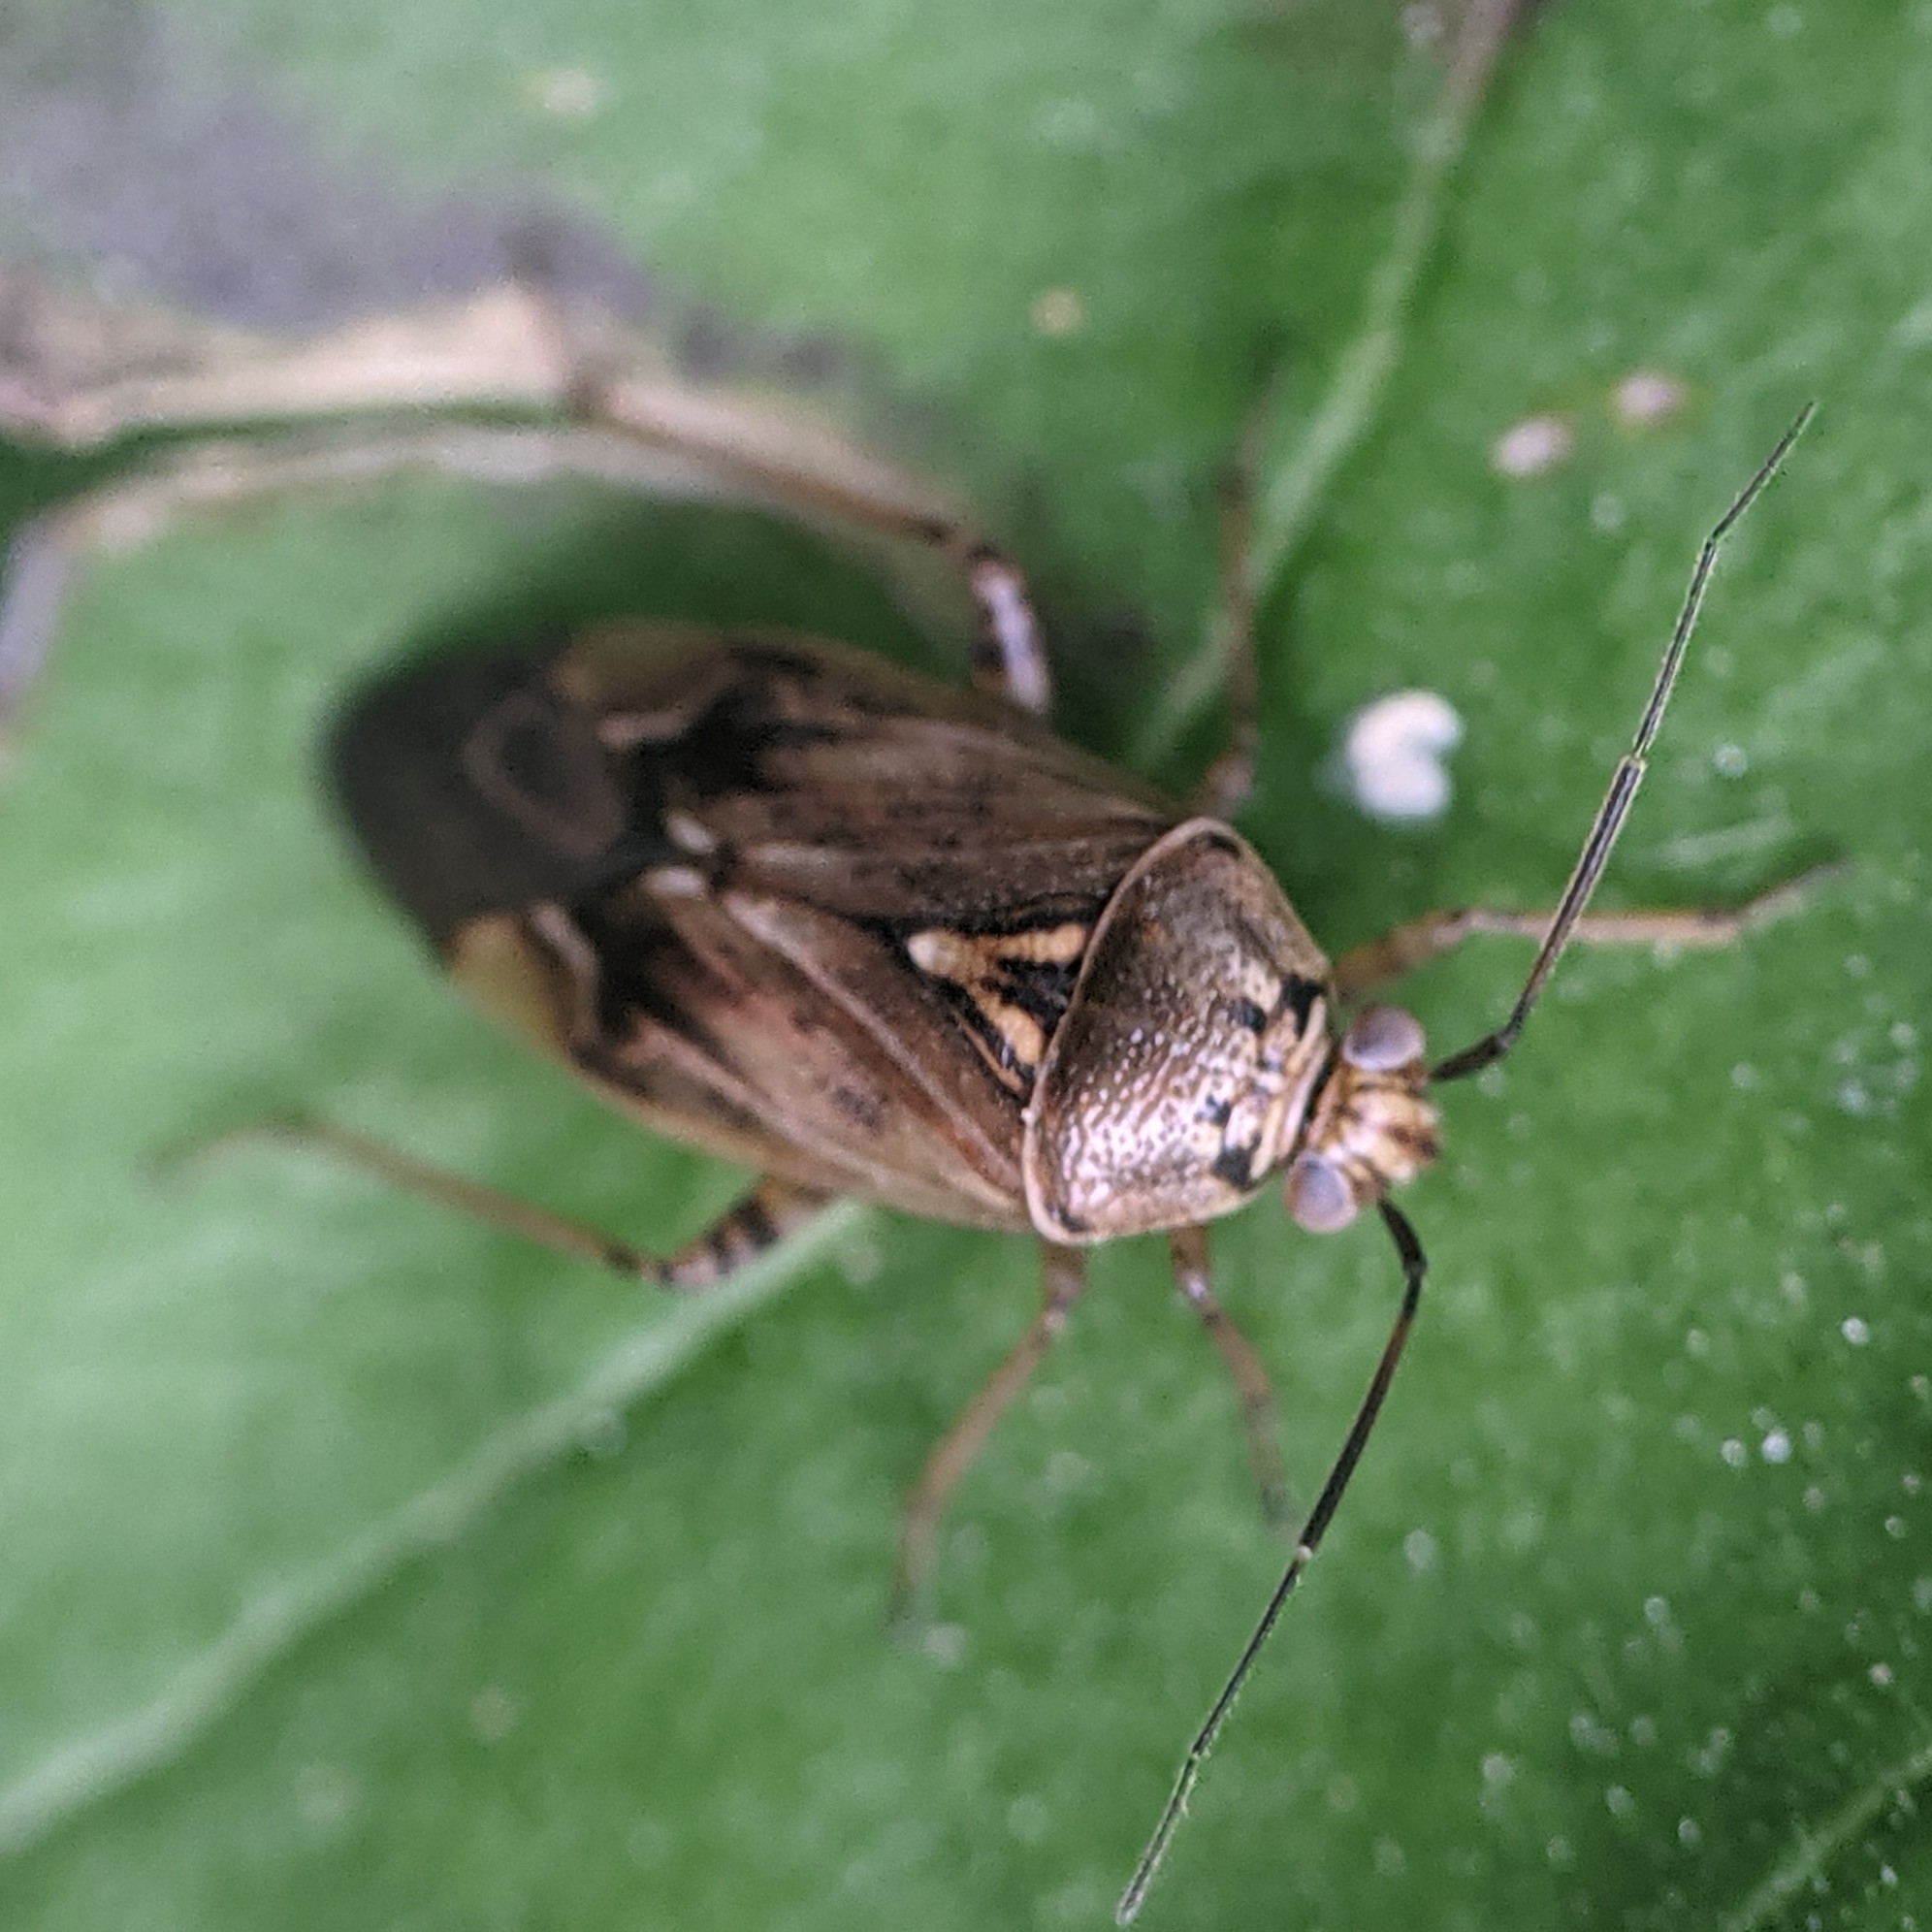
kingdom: Animalia
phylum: Arthropoda
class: Insecta
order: Hemiptera
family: Miridae
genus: Lygus
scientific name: Lygus lineolaris
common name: North american tarnished plant bug
